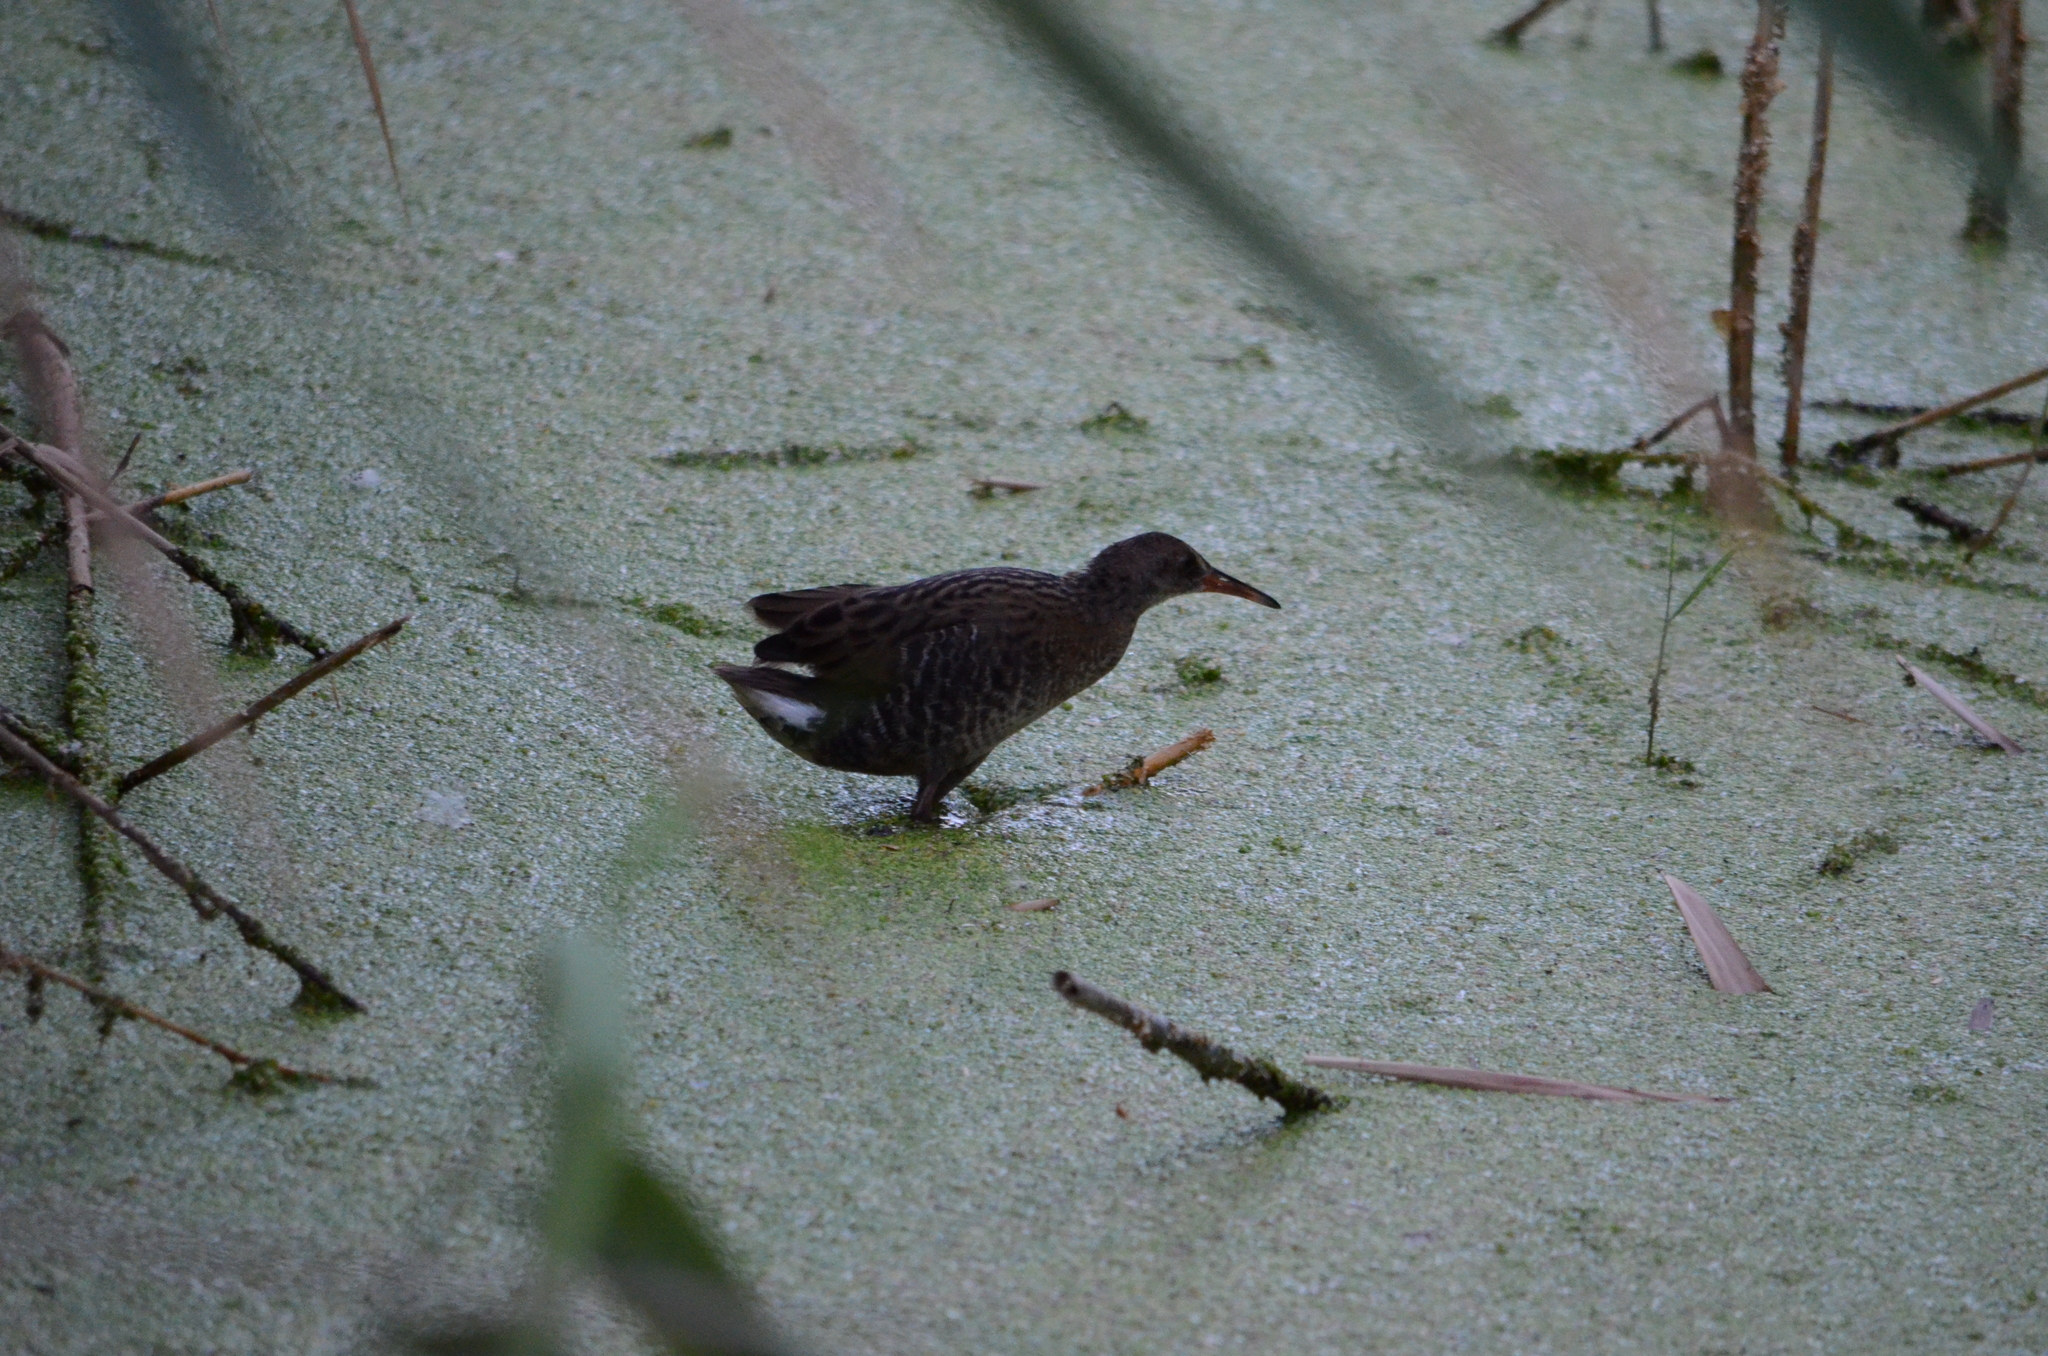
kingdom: Animalia
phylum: Chordata
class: Aves
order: Gruiformes
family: Rallidae
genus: Rallus
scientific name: Rallus aquaticus
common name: Water rail
